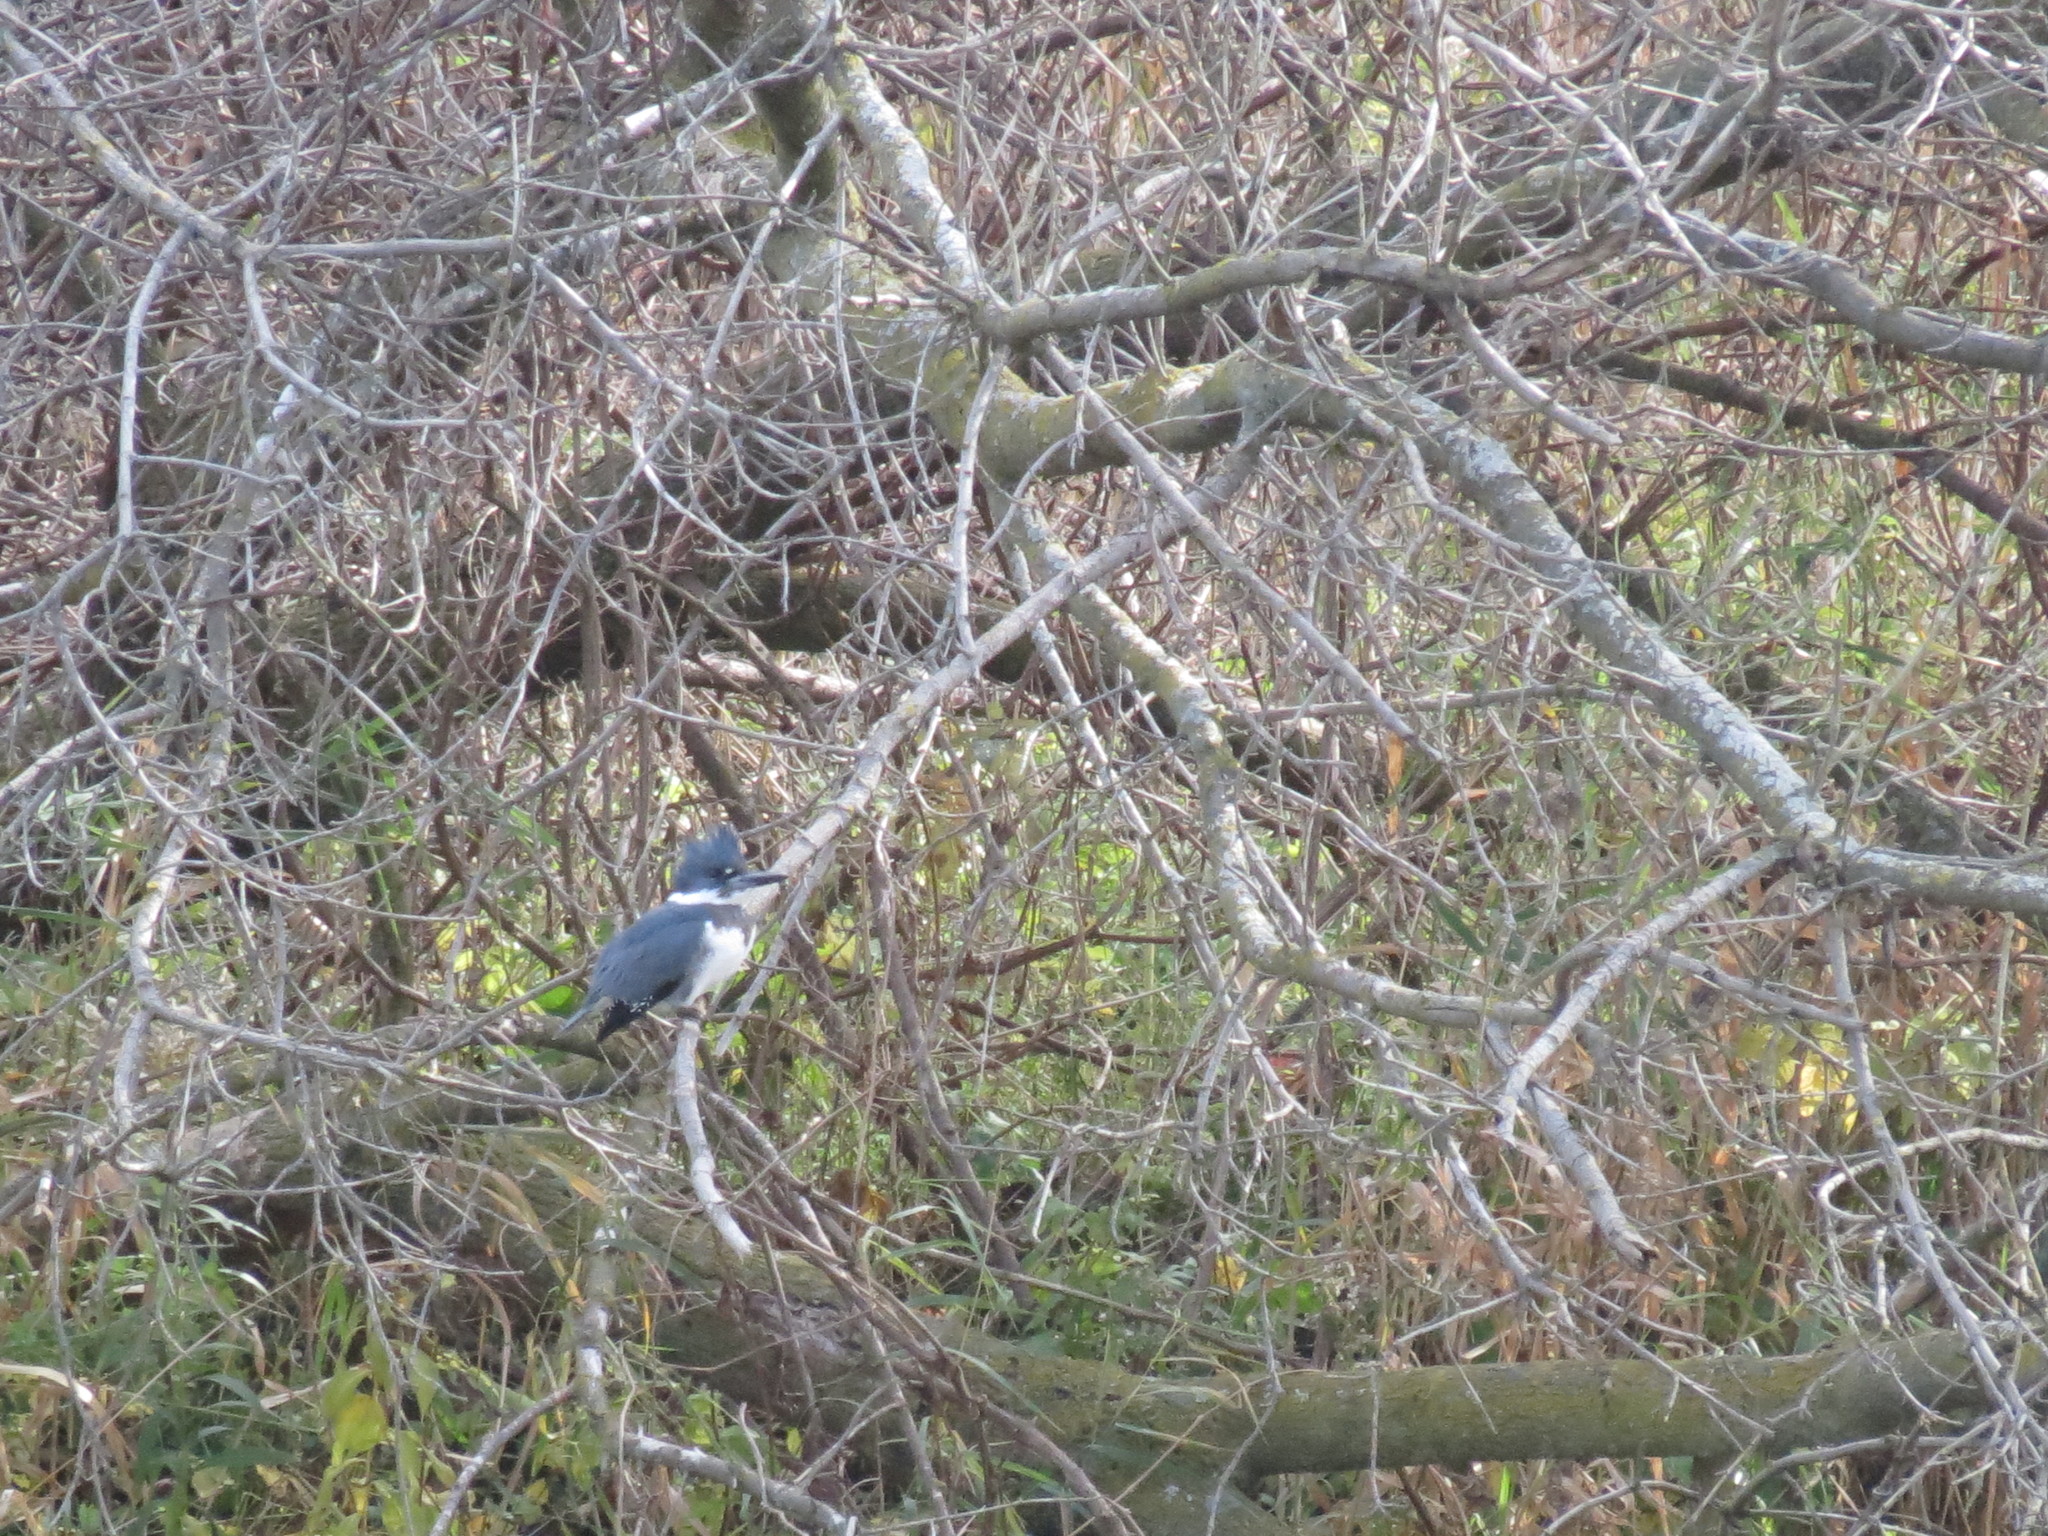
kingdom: Animalia
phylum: Chordata
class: Aves
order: Coraciiformes
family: Alcedinidae
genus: Megaceryle
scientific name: Megaceryle alcyon
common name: Belted kingfisher
